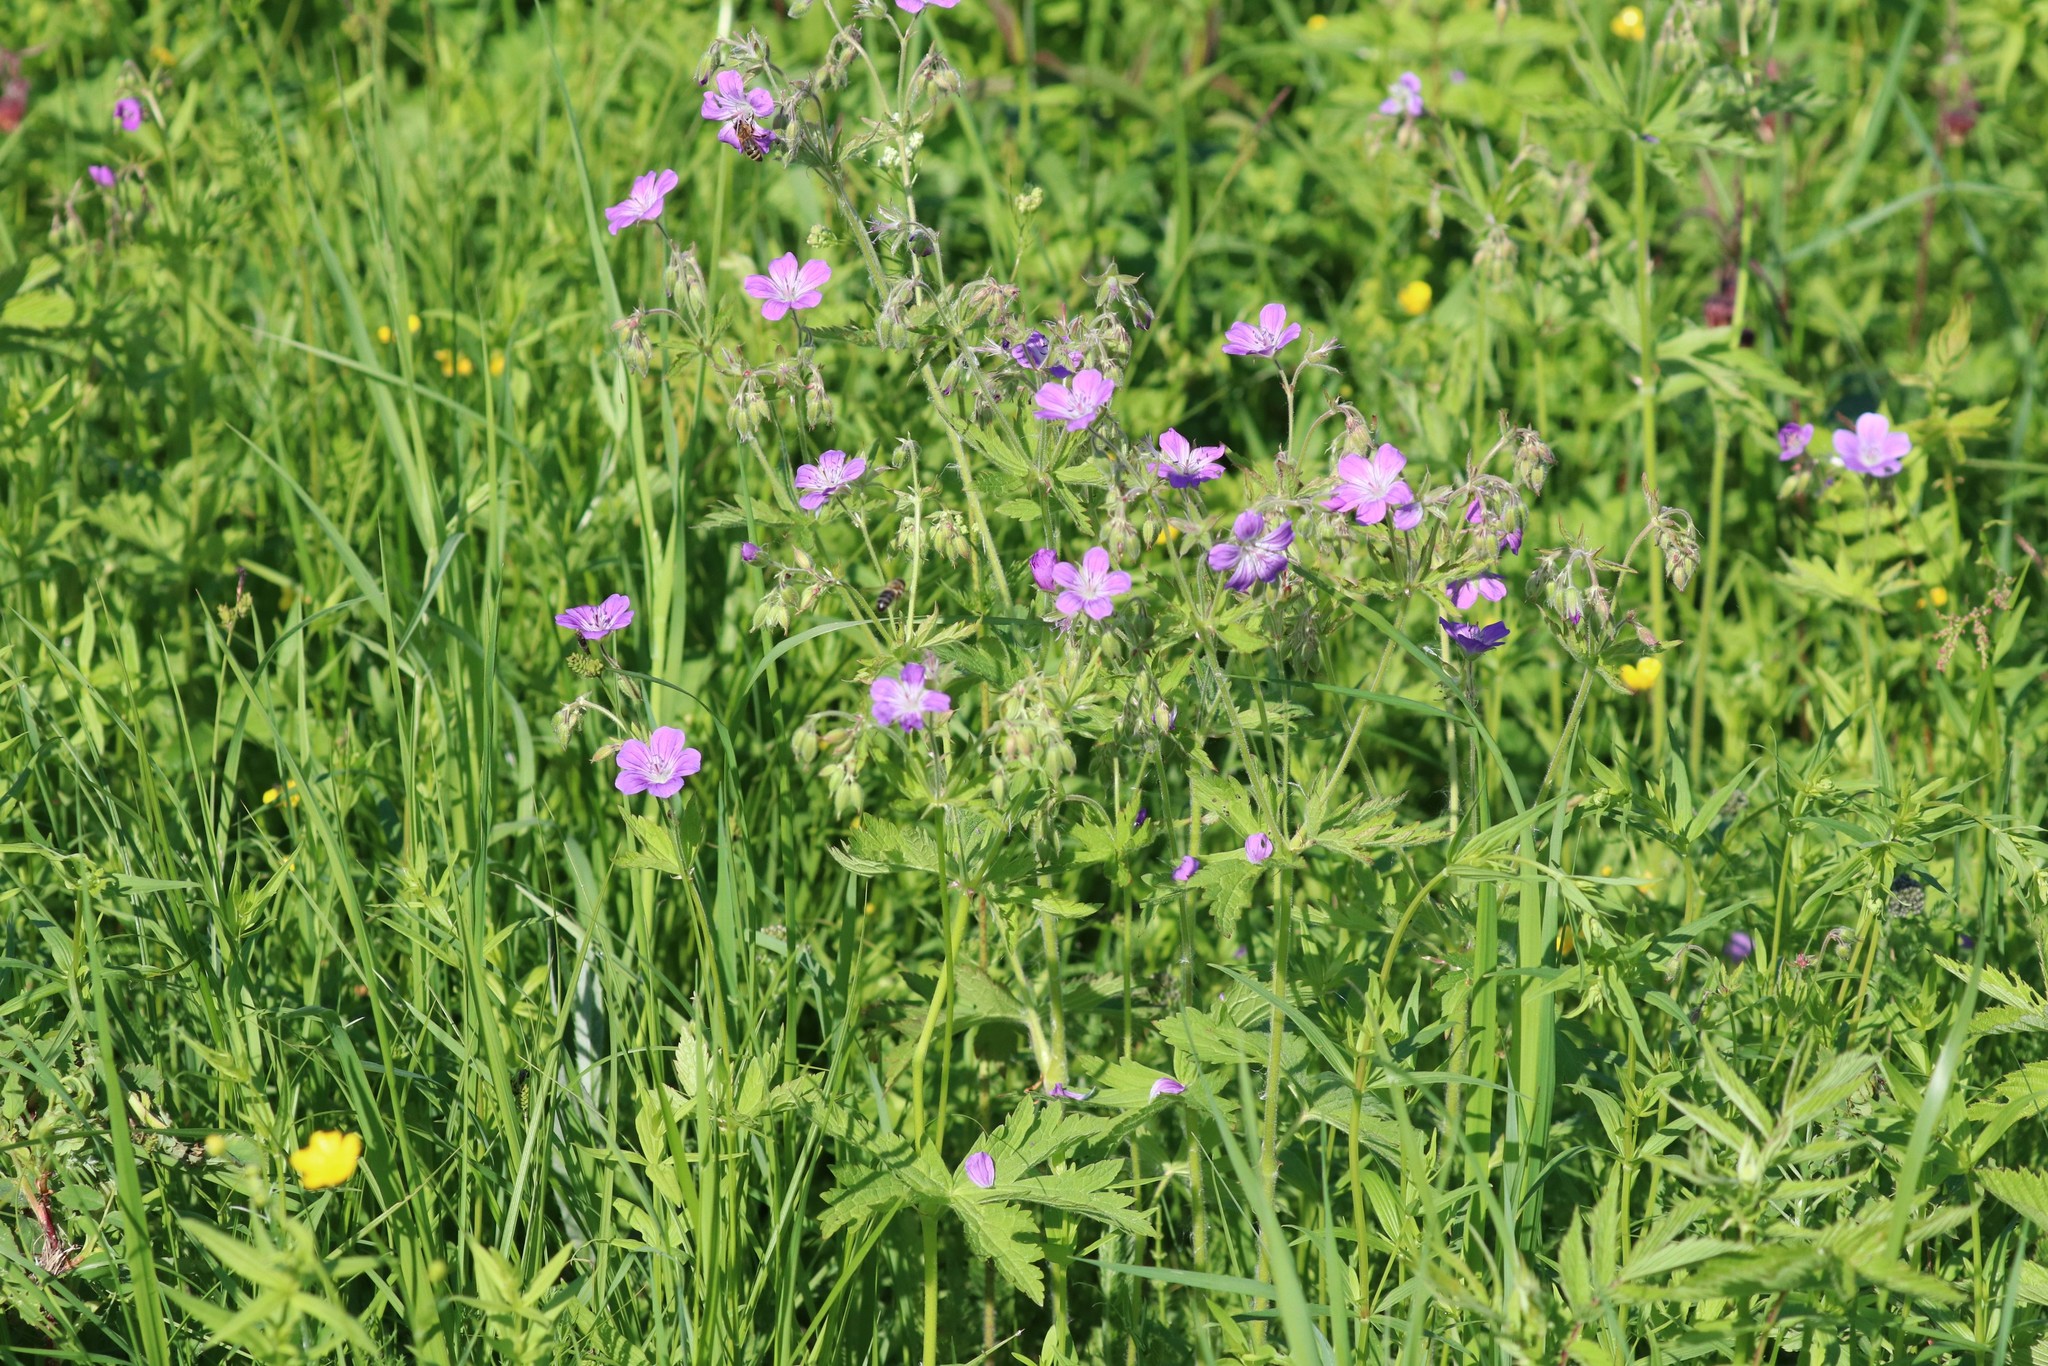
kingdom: Plantae
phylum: Tracheophyta
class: Magnoliopsida
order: Geraniales
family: Geraniaceae
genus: Geranium
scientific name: Geranium sylvaticum
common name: Wood crane's-bill
